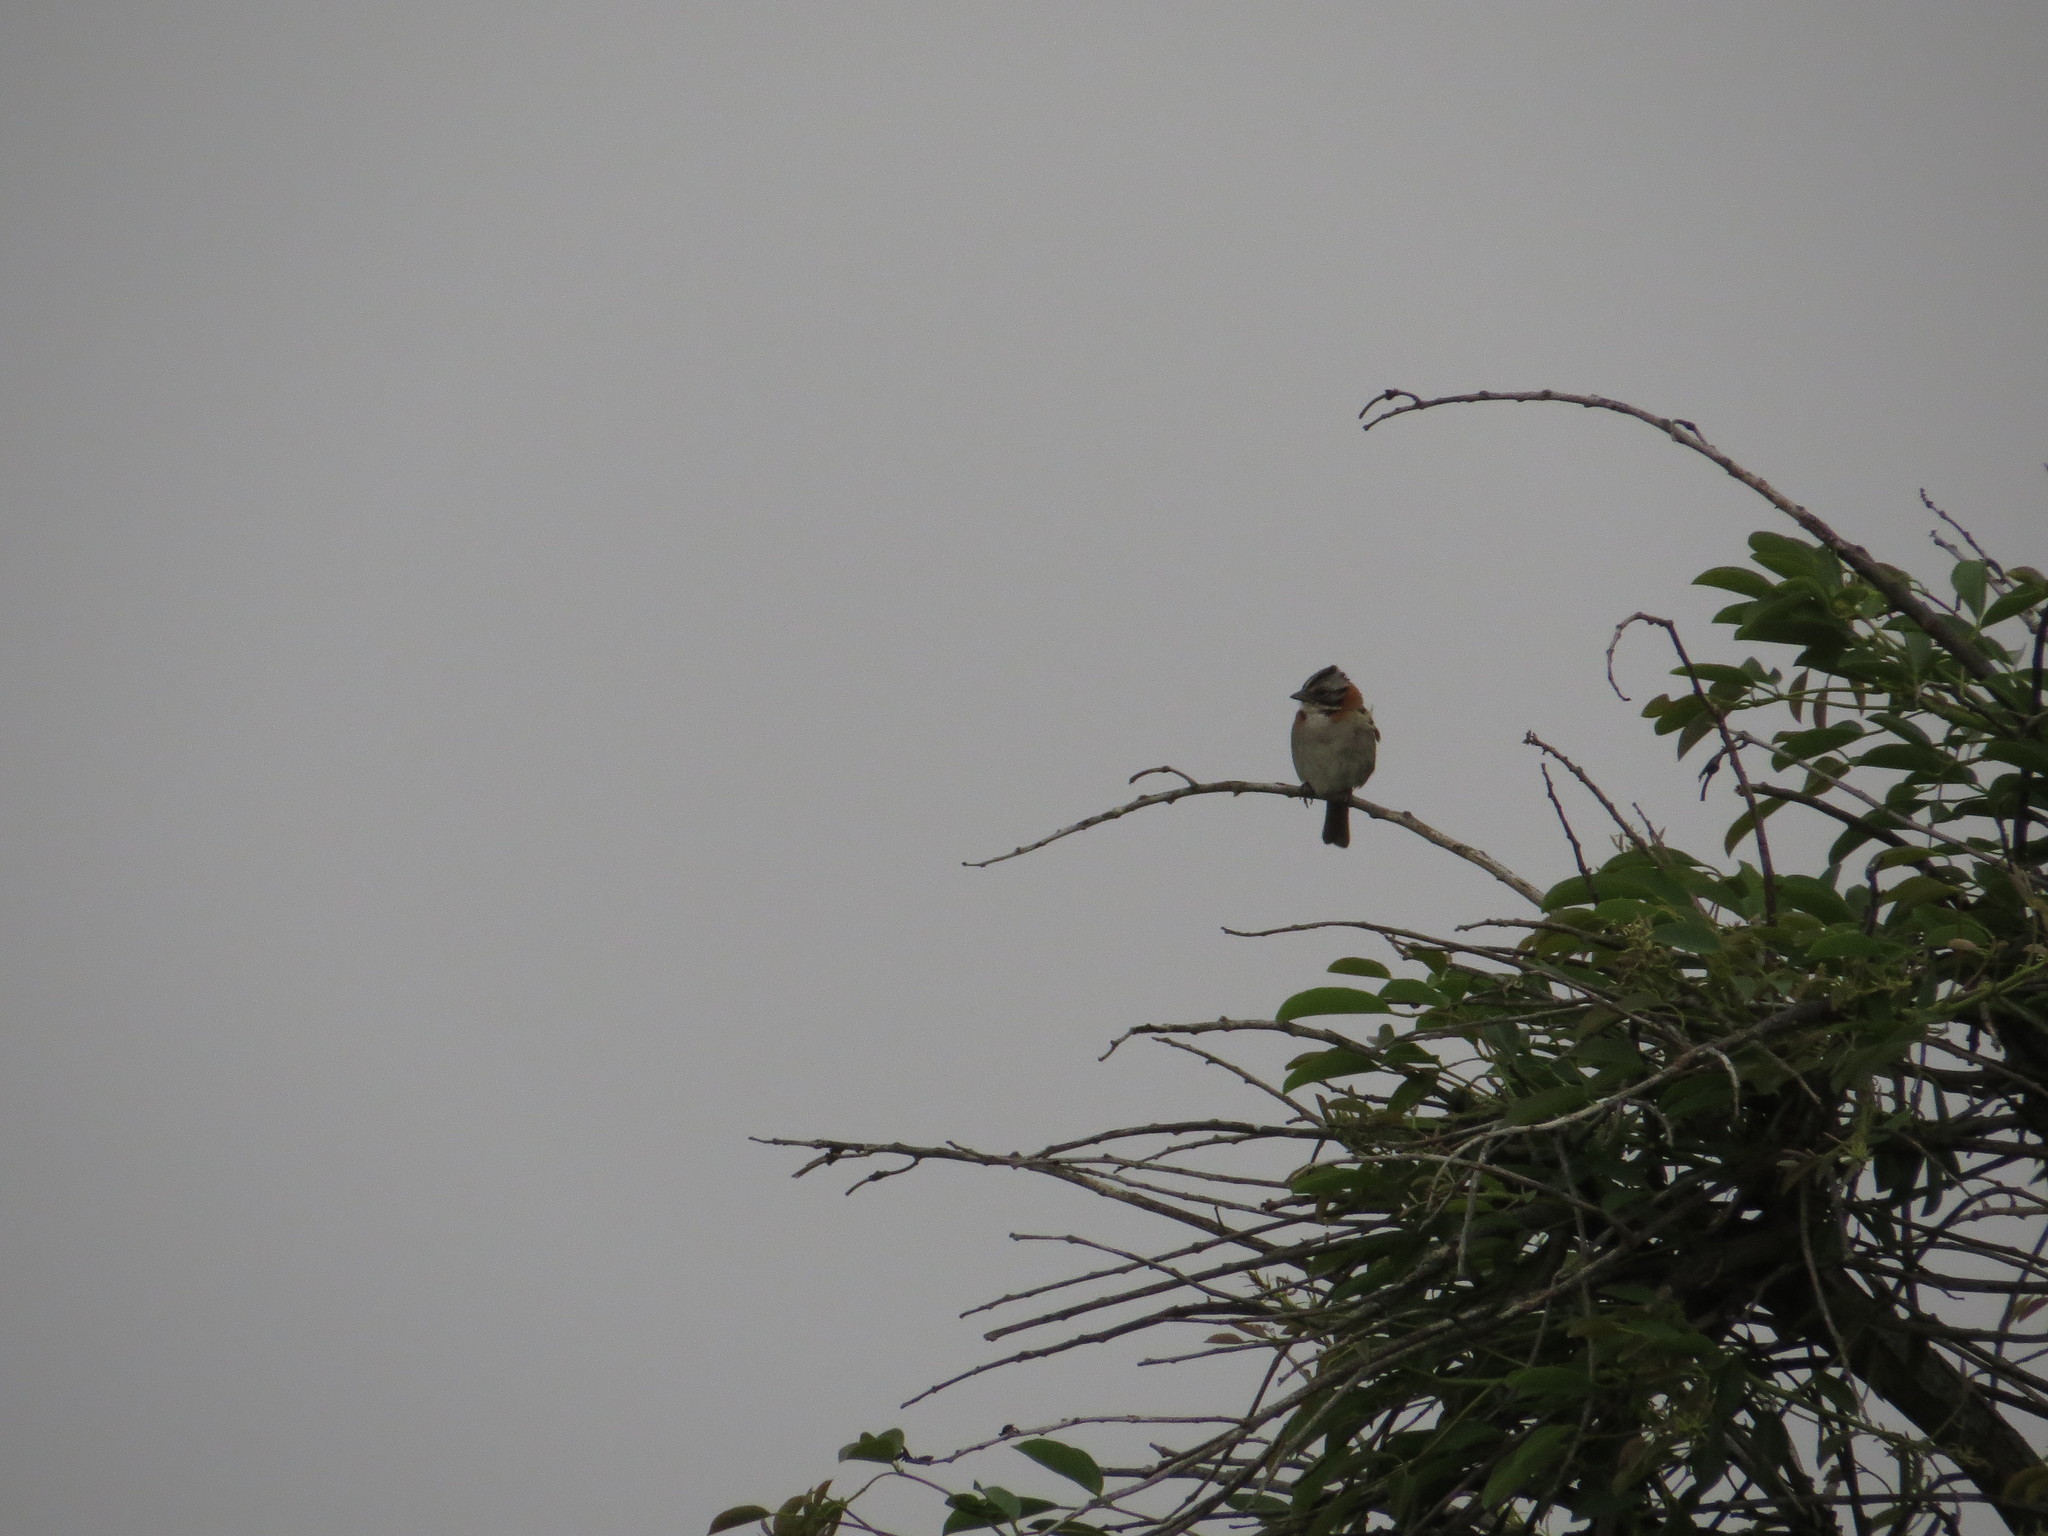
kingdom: Animalia
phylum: Chordata
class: Aves
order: Passeriformes
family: Passerellidae
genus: Zonotrichia
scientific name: Zonotrichia capensis
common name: Rufous-collared sparrow
